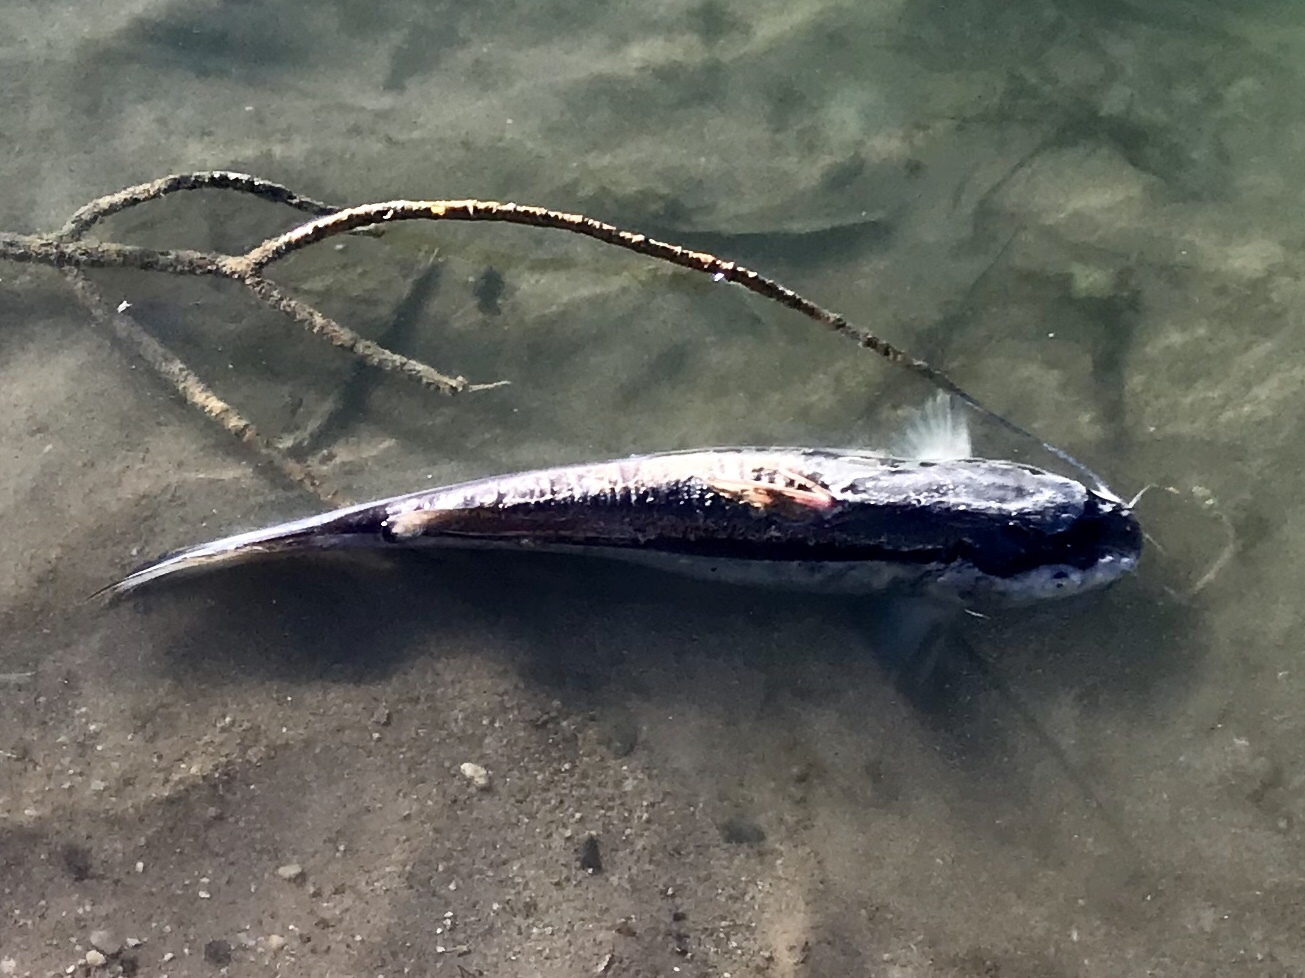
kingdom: Animalia
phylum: Chordata
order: Siluriformes
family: Ictaluridae
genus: Ictalurus
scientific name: Ictalurus punctatus
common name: Channel catfish
